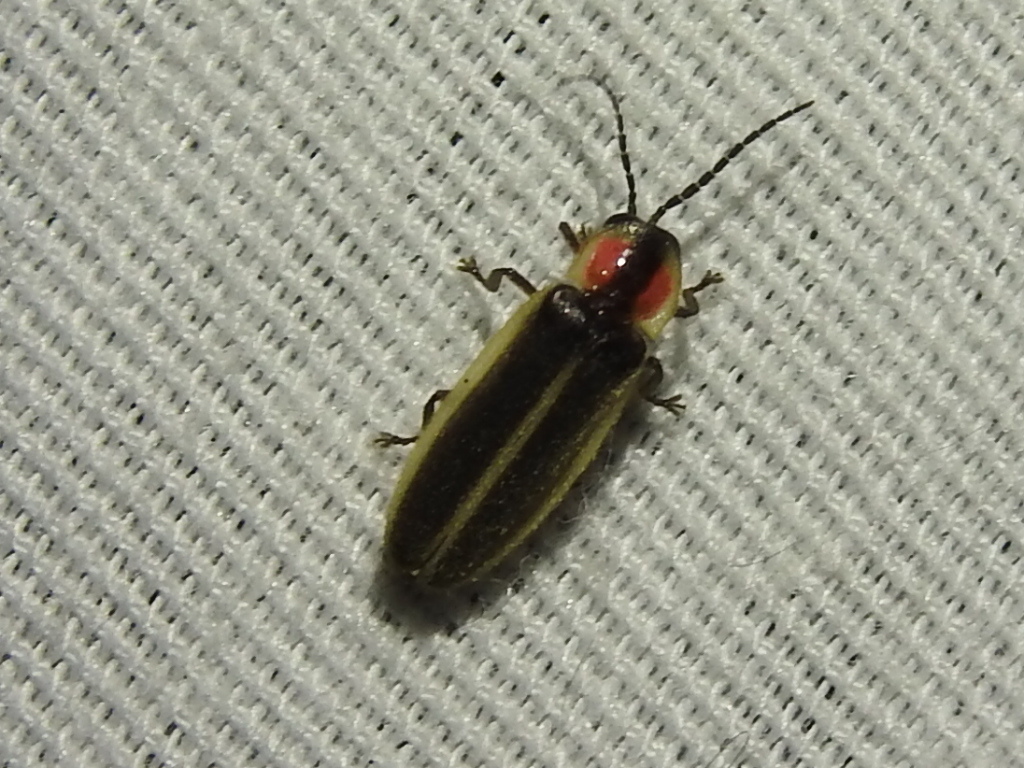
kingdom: Animalia
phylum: Arthropoda
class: Insecta
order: Coleoptera
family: Lampyridae
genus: Photinus
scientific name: Photinus pyralis
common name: Big dipper firefly
